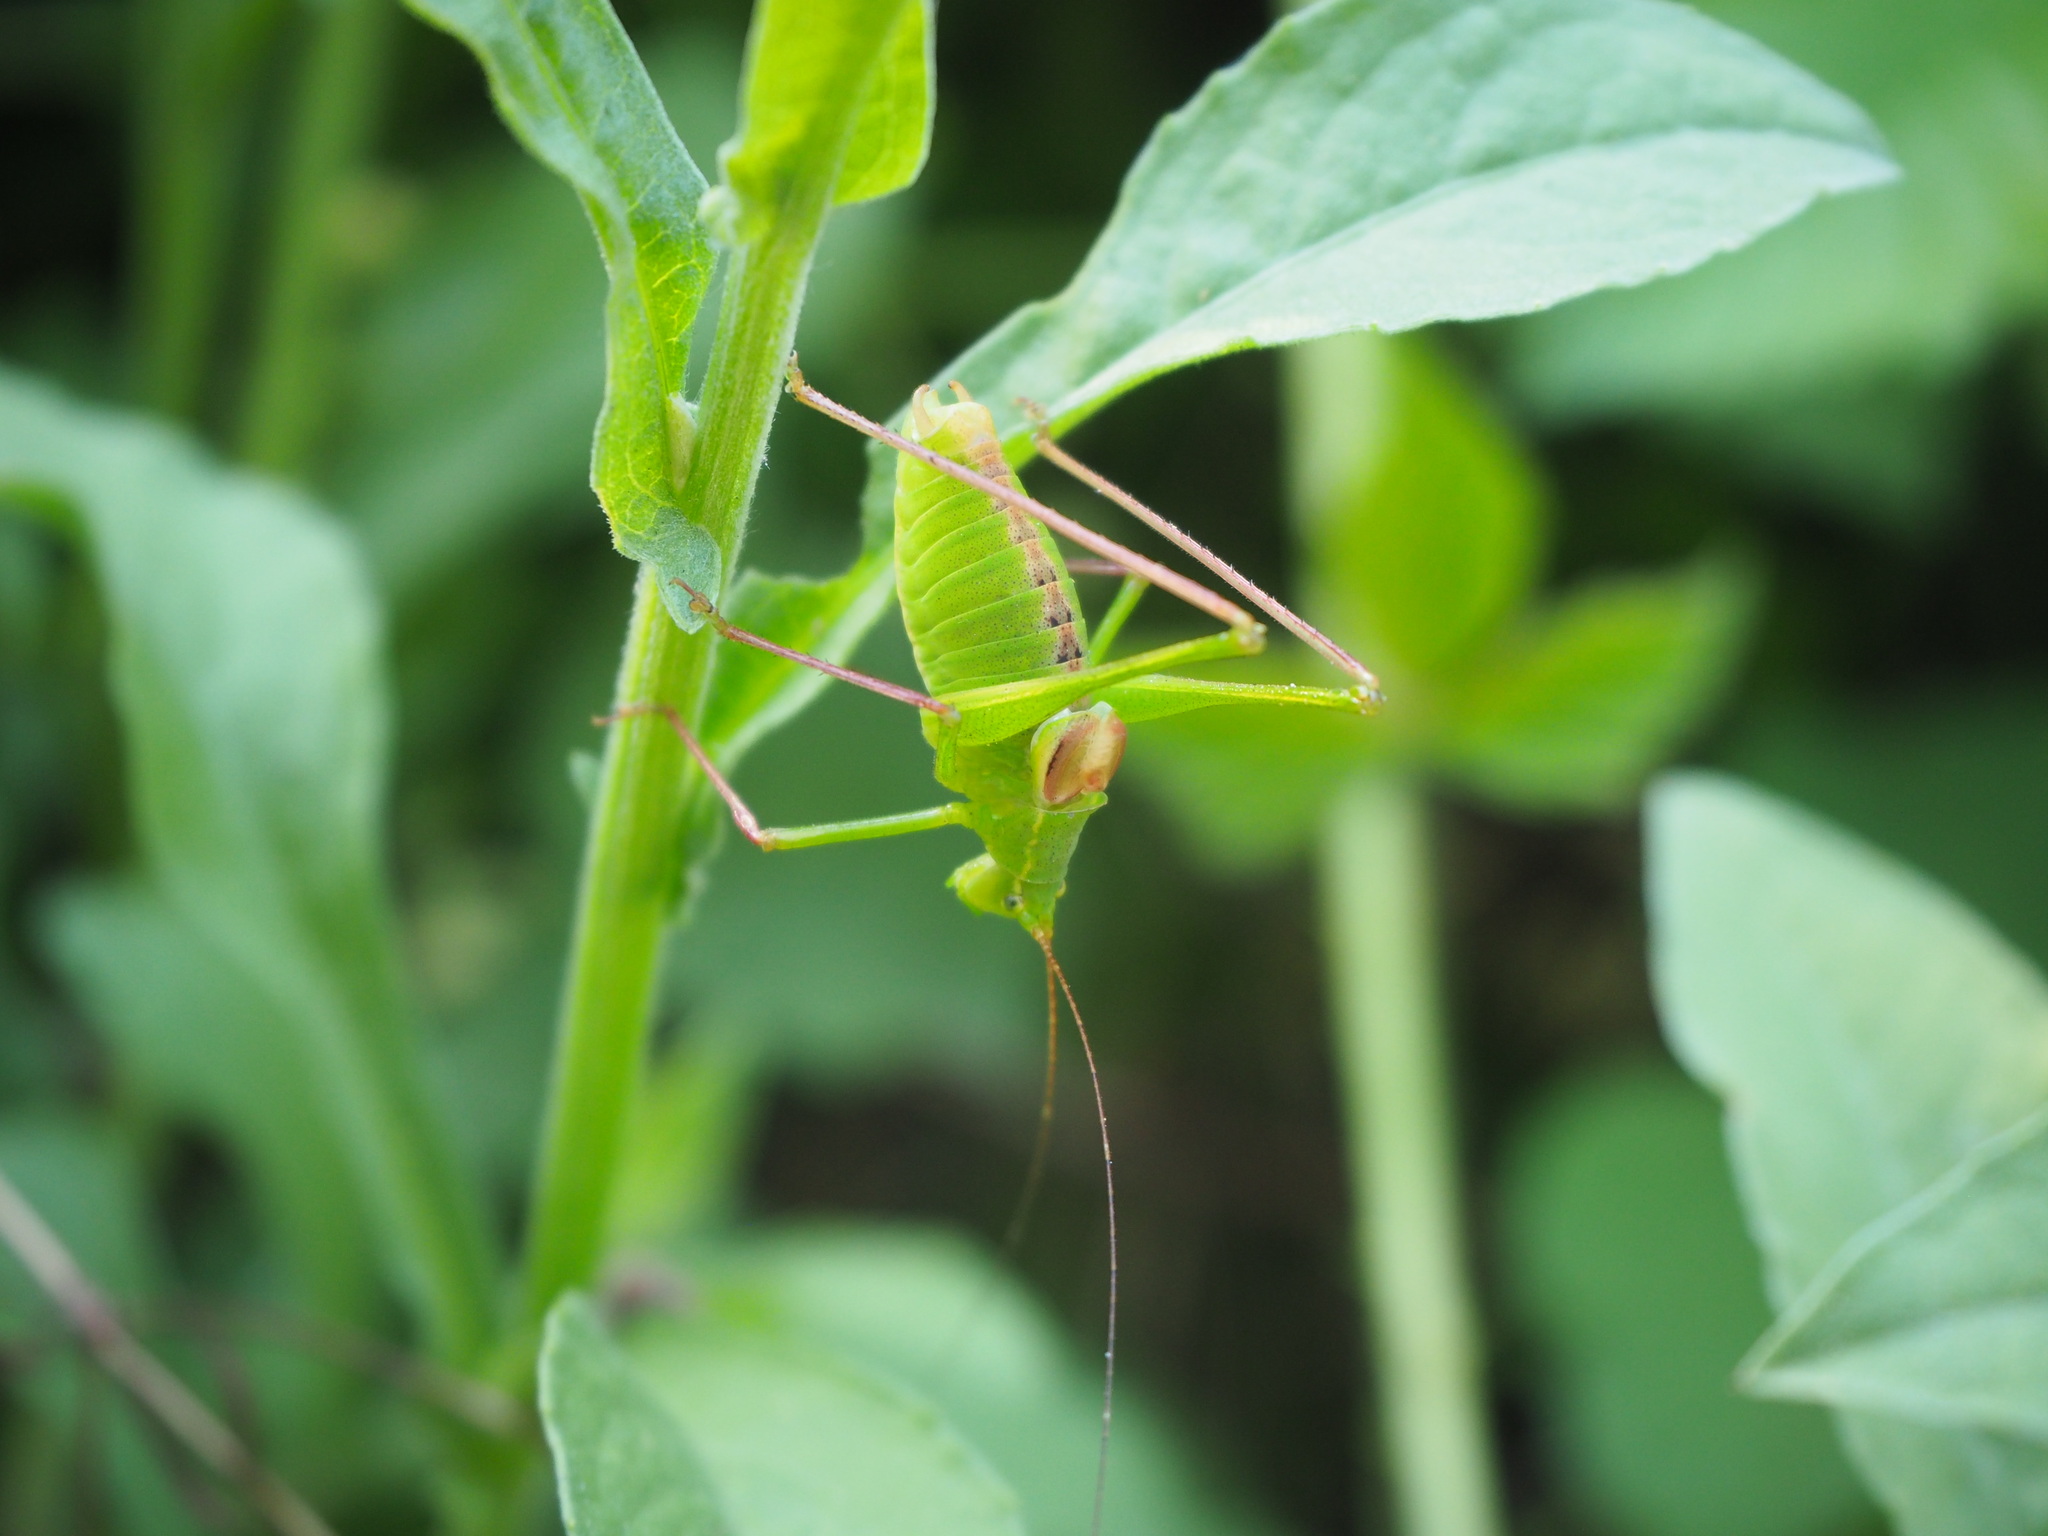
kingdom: Animalia
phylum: Arthropoda
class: Insecta
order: Orthoptera
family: Tettigoniidae
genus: Leptophyes
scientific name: Leptophyes laticauda
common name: Long-tailed speckled bush-cricket
